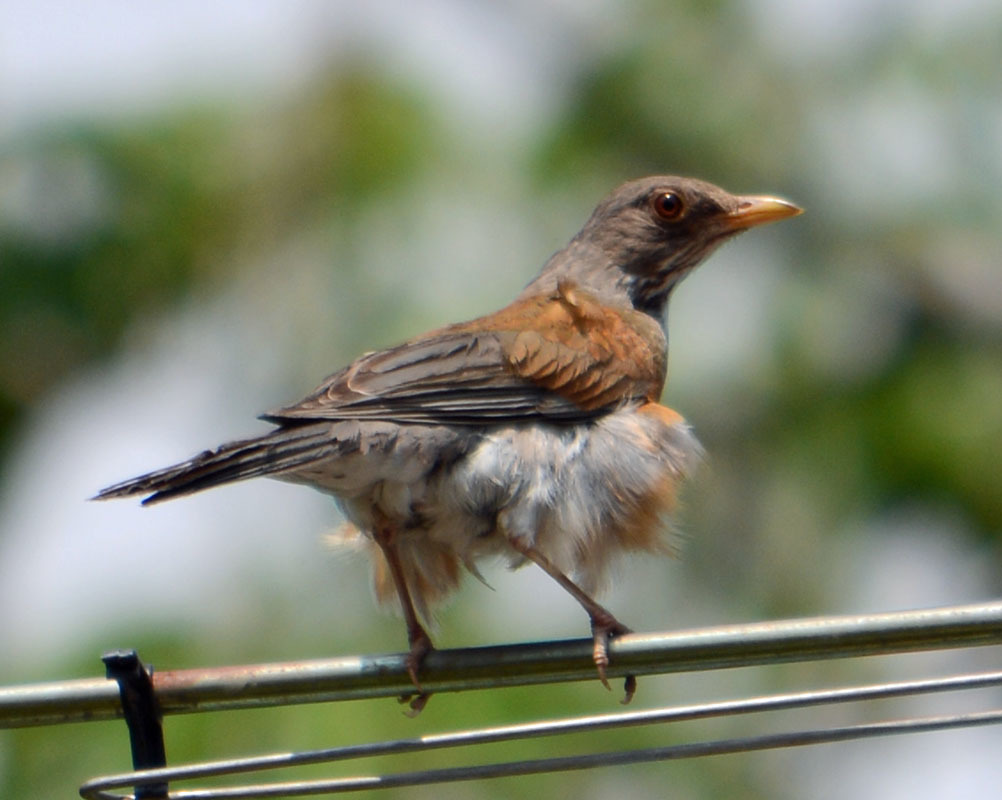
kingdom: Animalia
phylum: Chordata
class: Aves
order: Passeriformes
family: Turdidae
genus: Turdus
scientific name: Turdus rufopalliatus
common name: Rufous-backed robin
